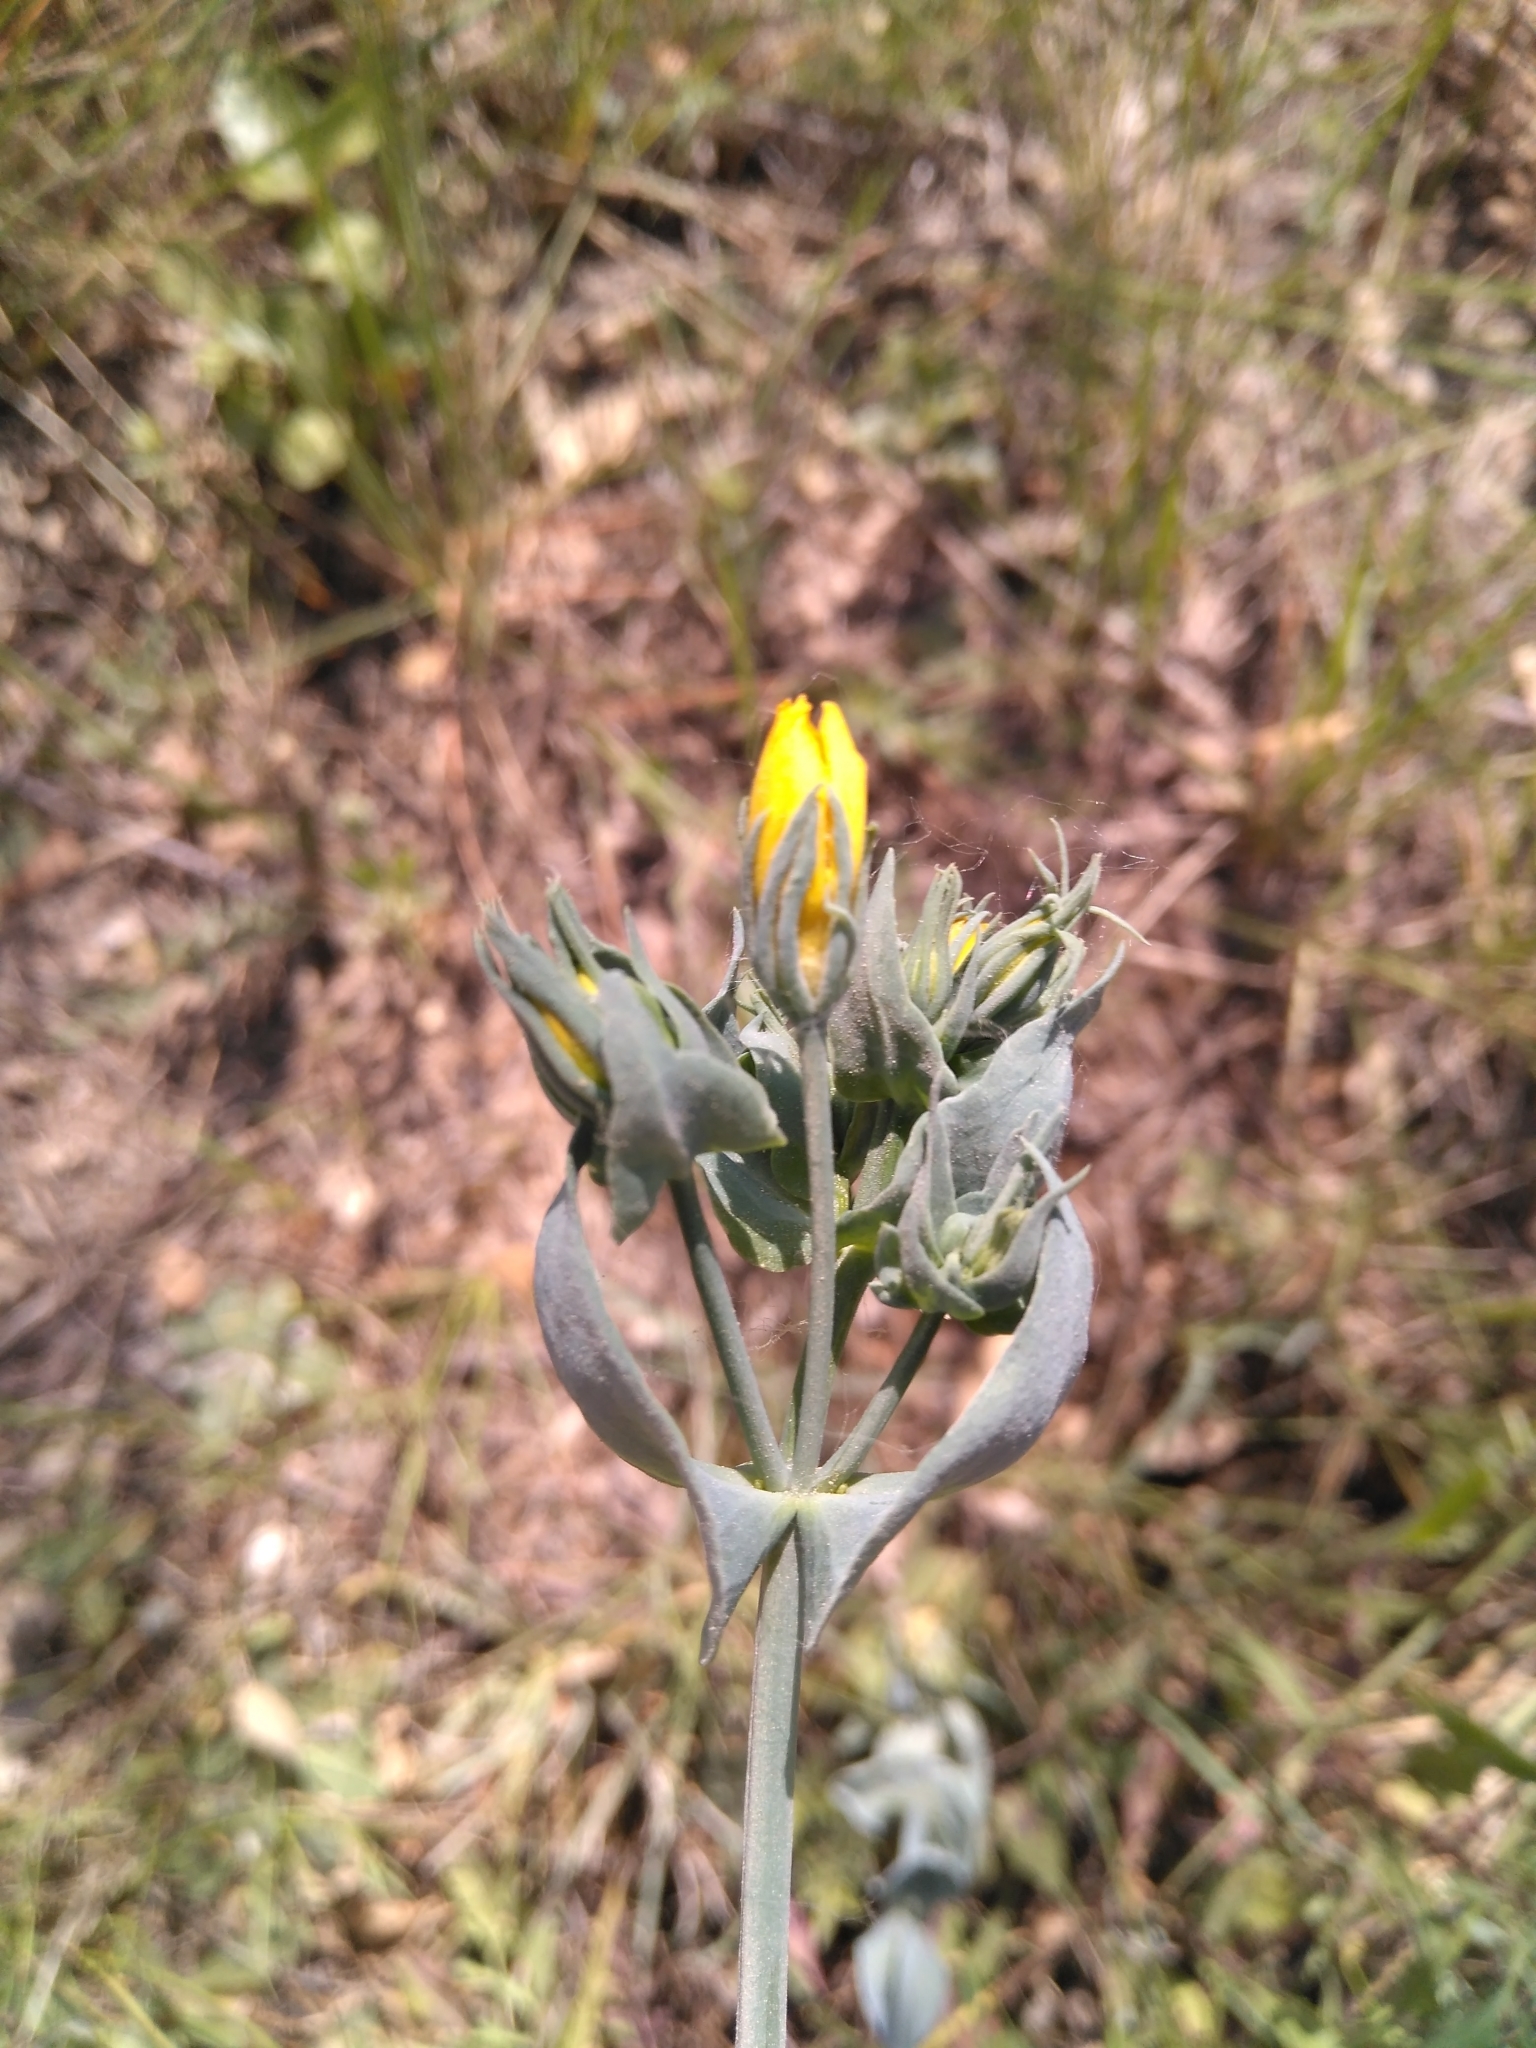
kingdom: Plantae
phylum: Tracheophyta
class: Magnoliopsida
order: Gentianales
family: Gentianaceae
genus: Blackstonia
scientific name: Blackstonia perfoliata
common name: Yellow-wort
